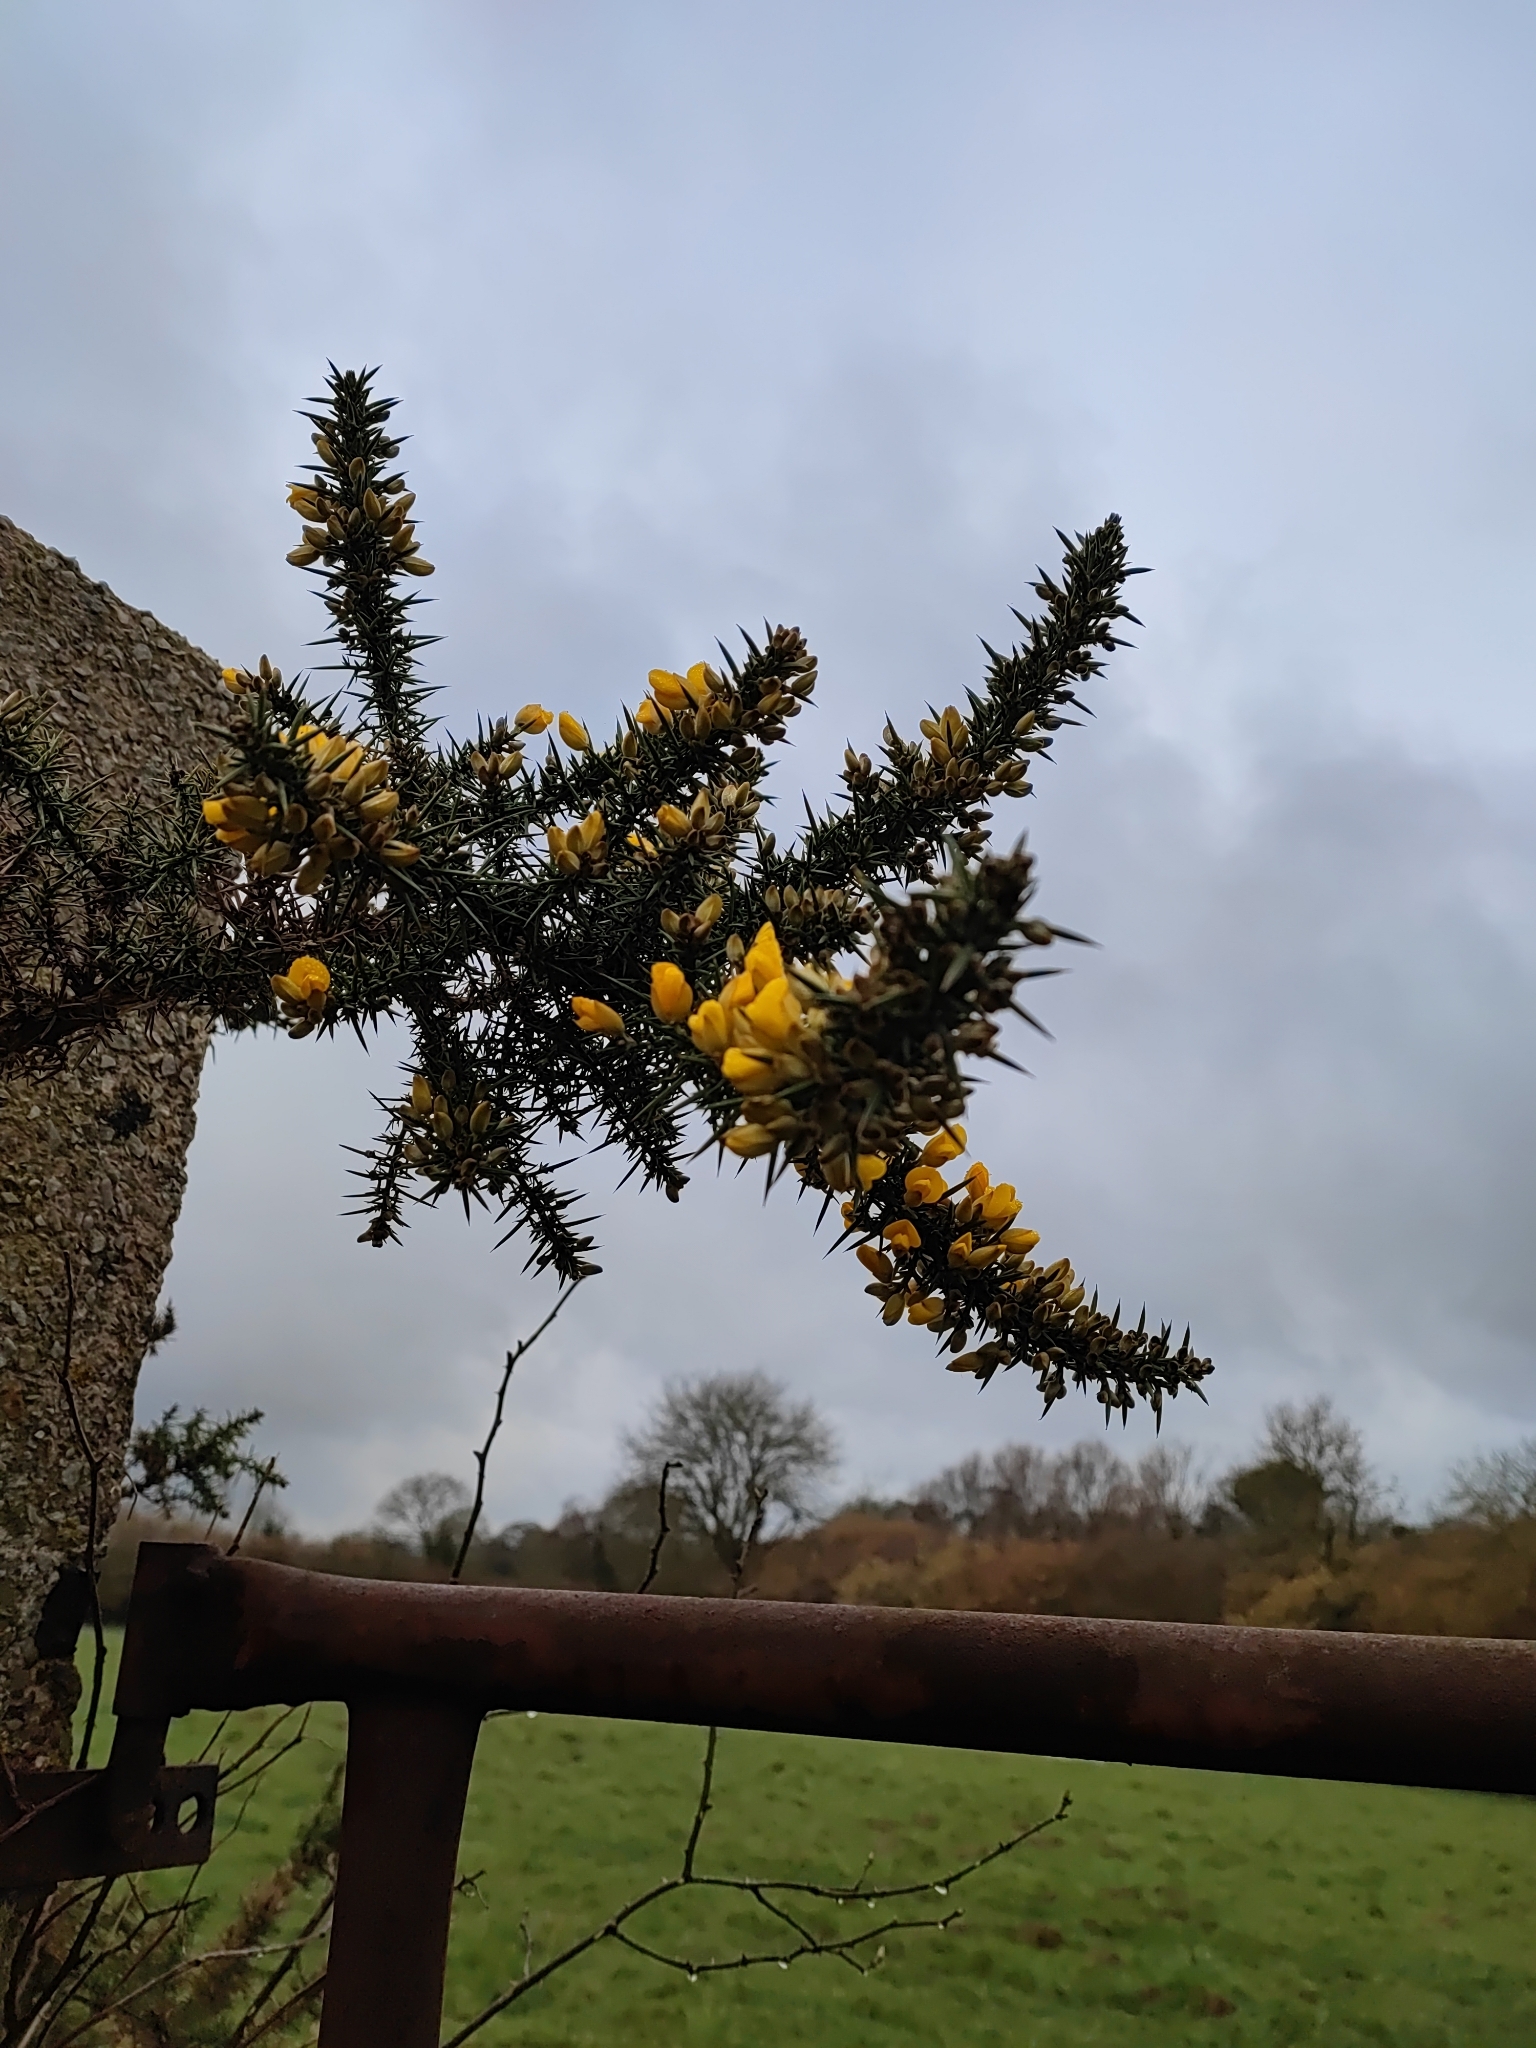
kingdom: Plantae
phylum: Tracheophyta
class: Magnoliopsida
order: Fabales
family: Fabaceae
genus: Ulex
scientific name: Ulex europaeus
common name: Common gorse
